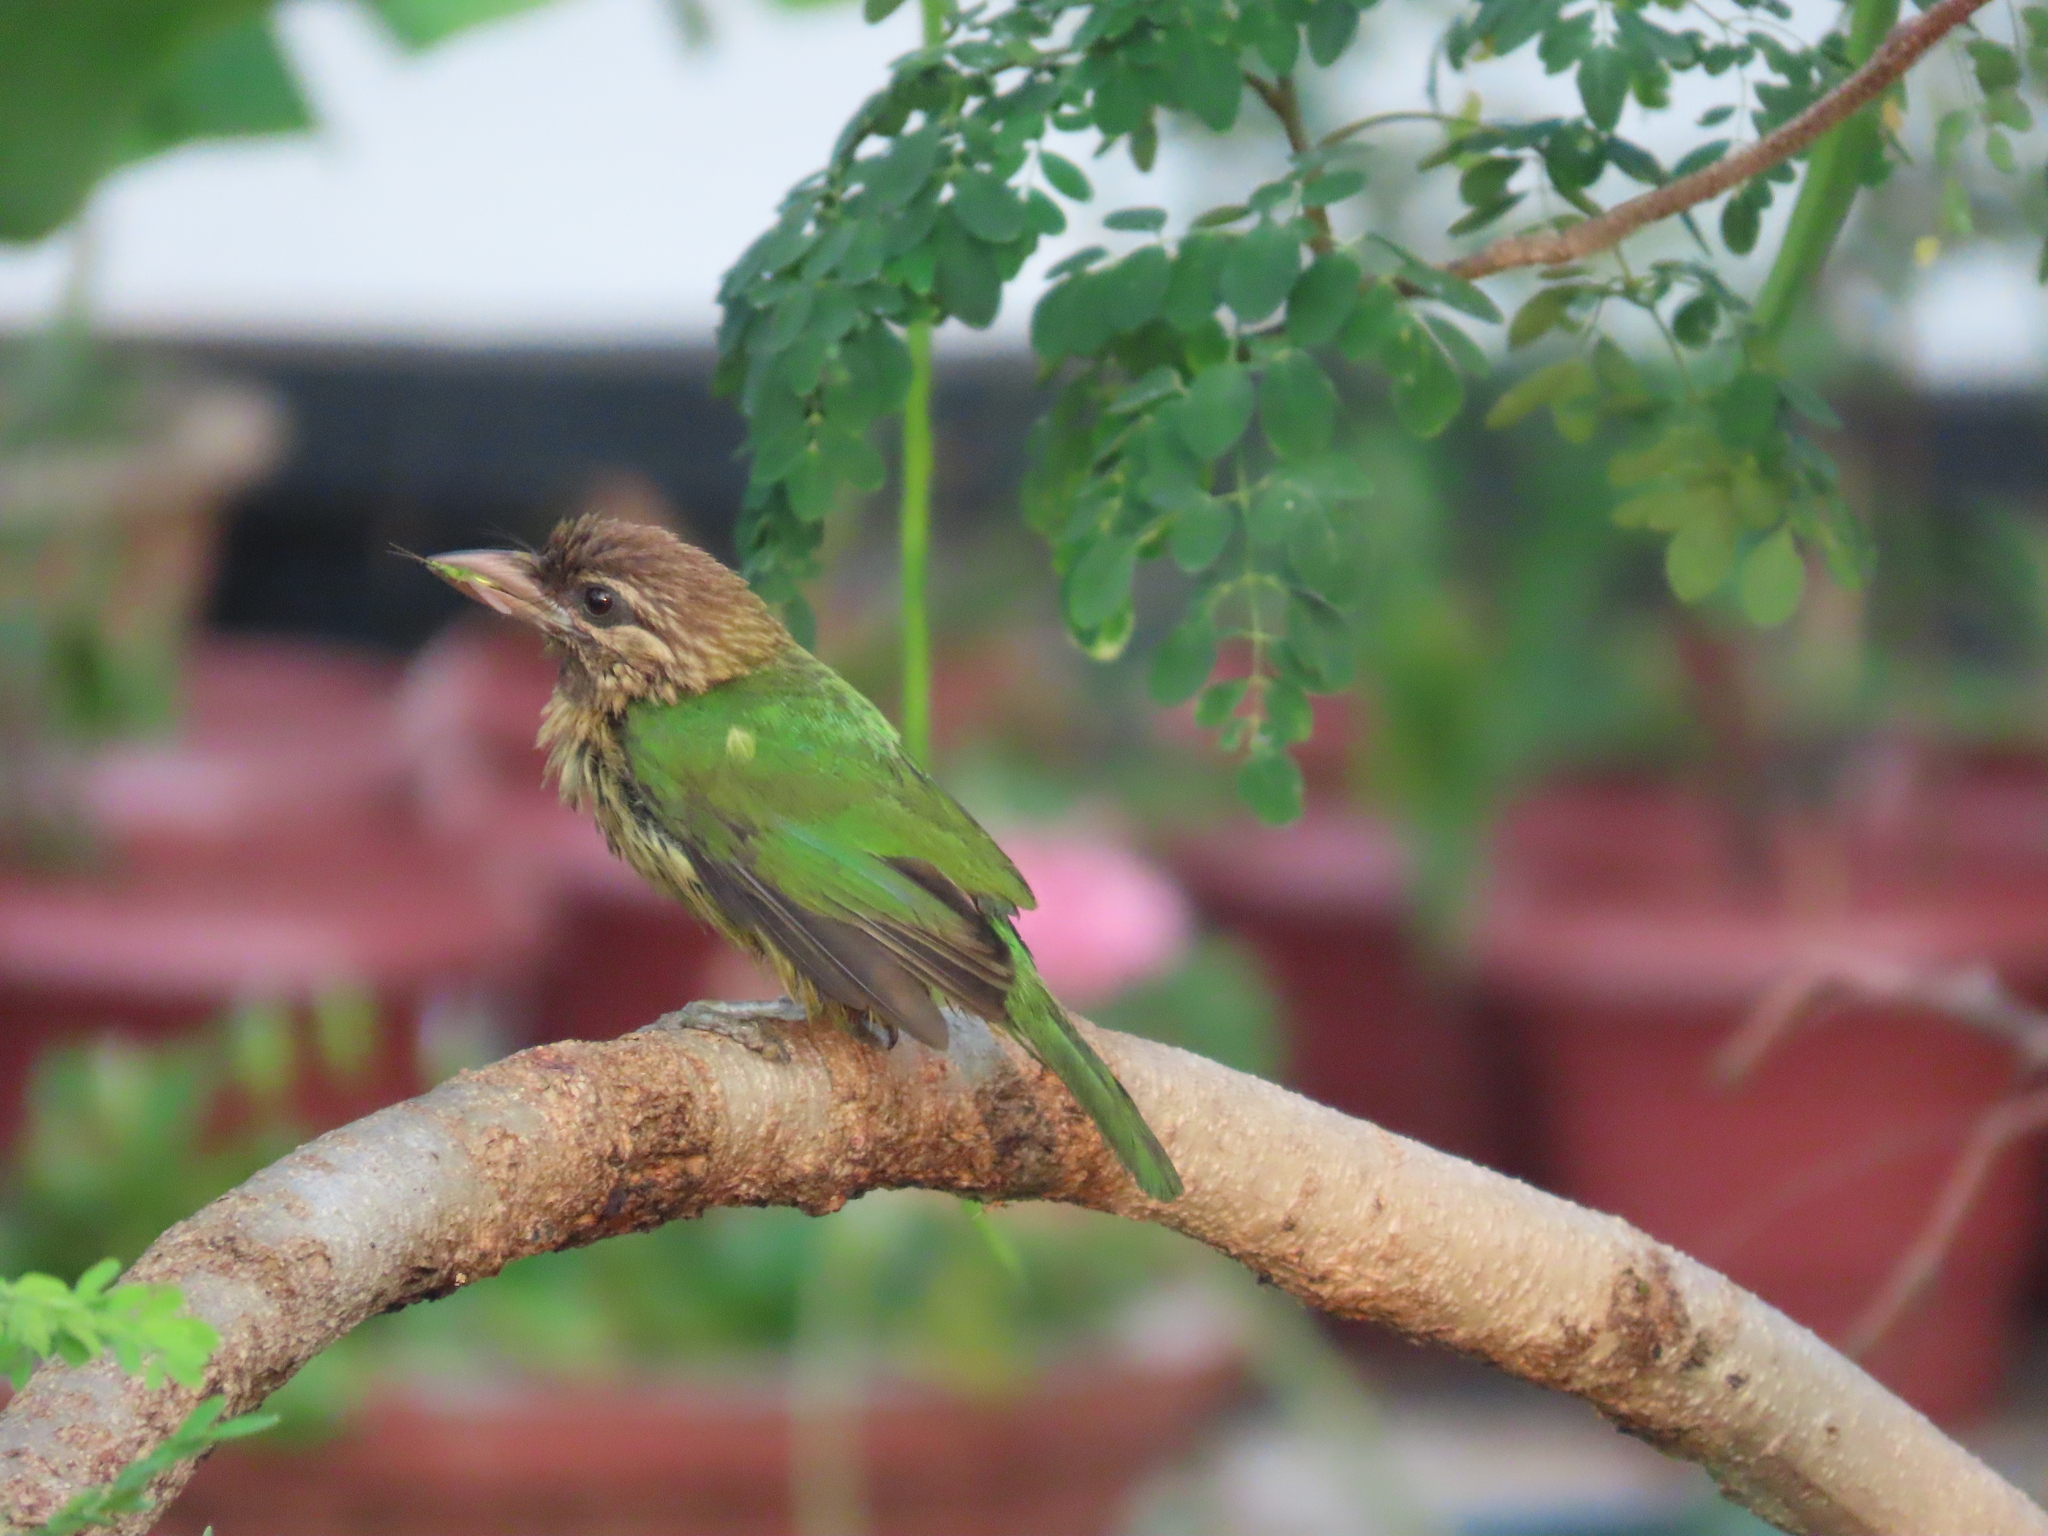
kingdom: Animalia
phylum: Chordata
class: Aves
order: Piciformes
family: Megalaimidae
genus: Psilopogon
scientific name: Psilopogon viridis
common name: White-cheeked barbet
